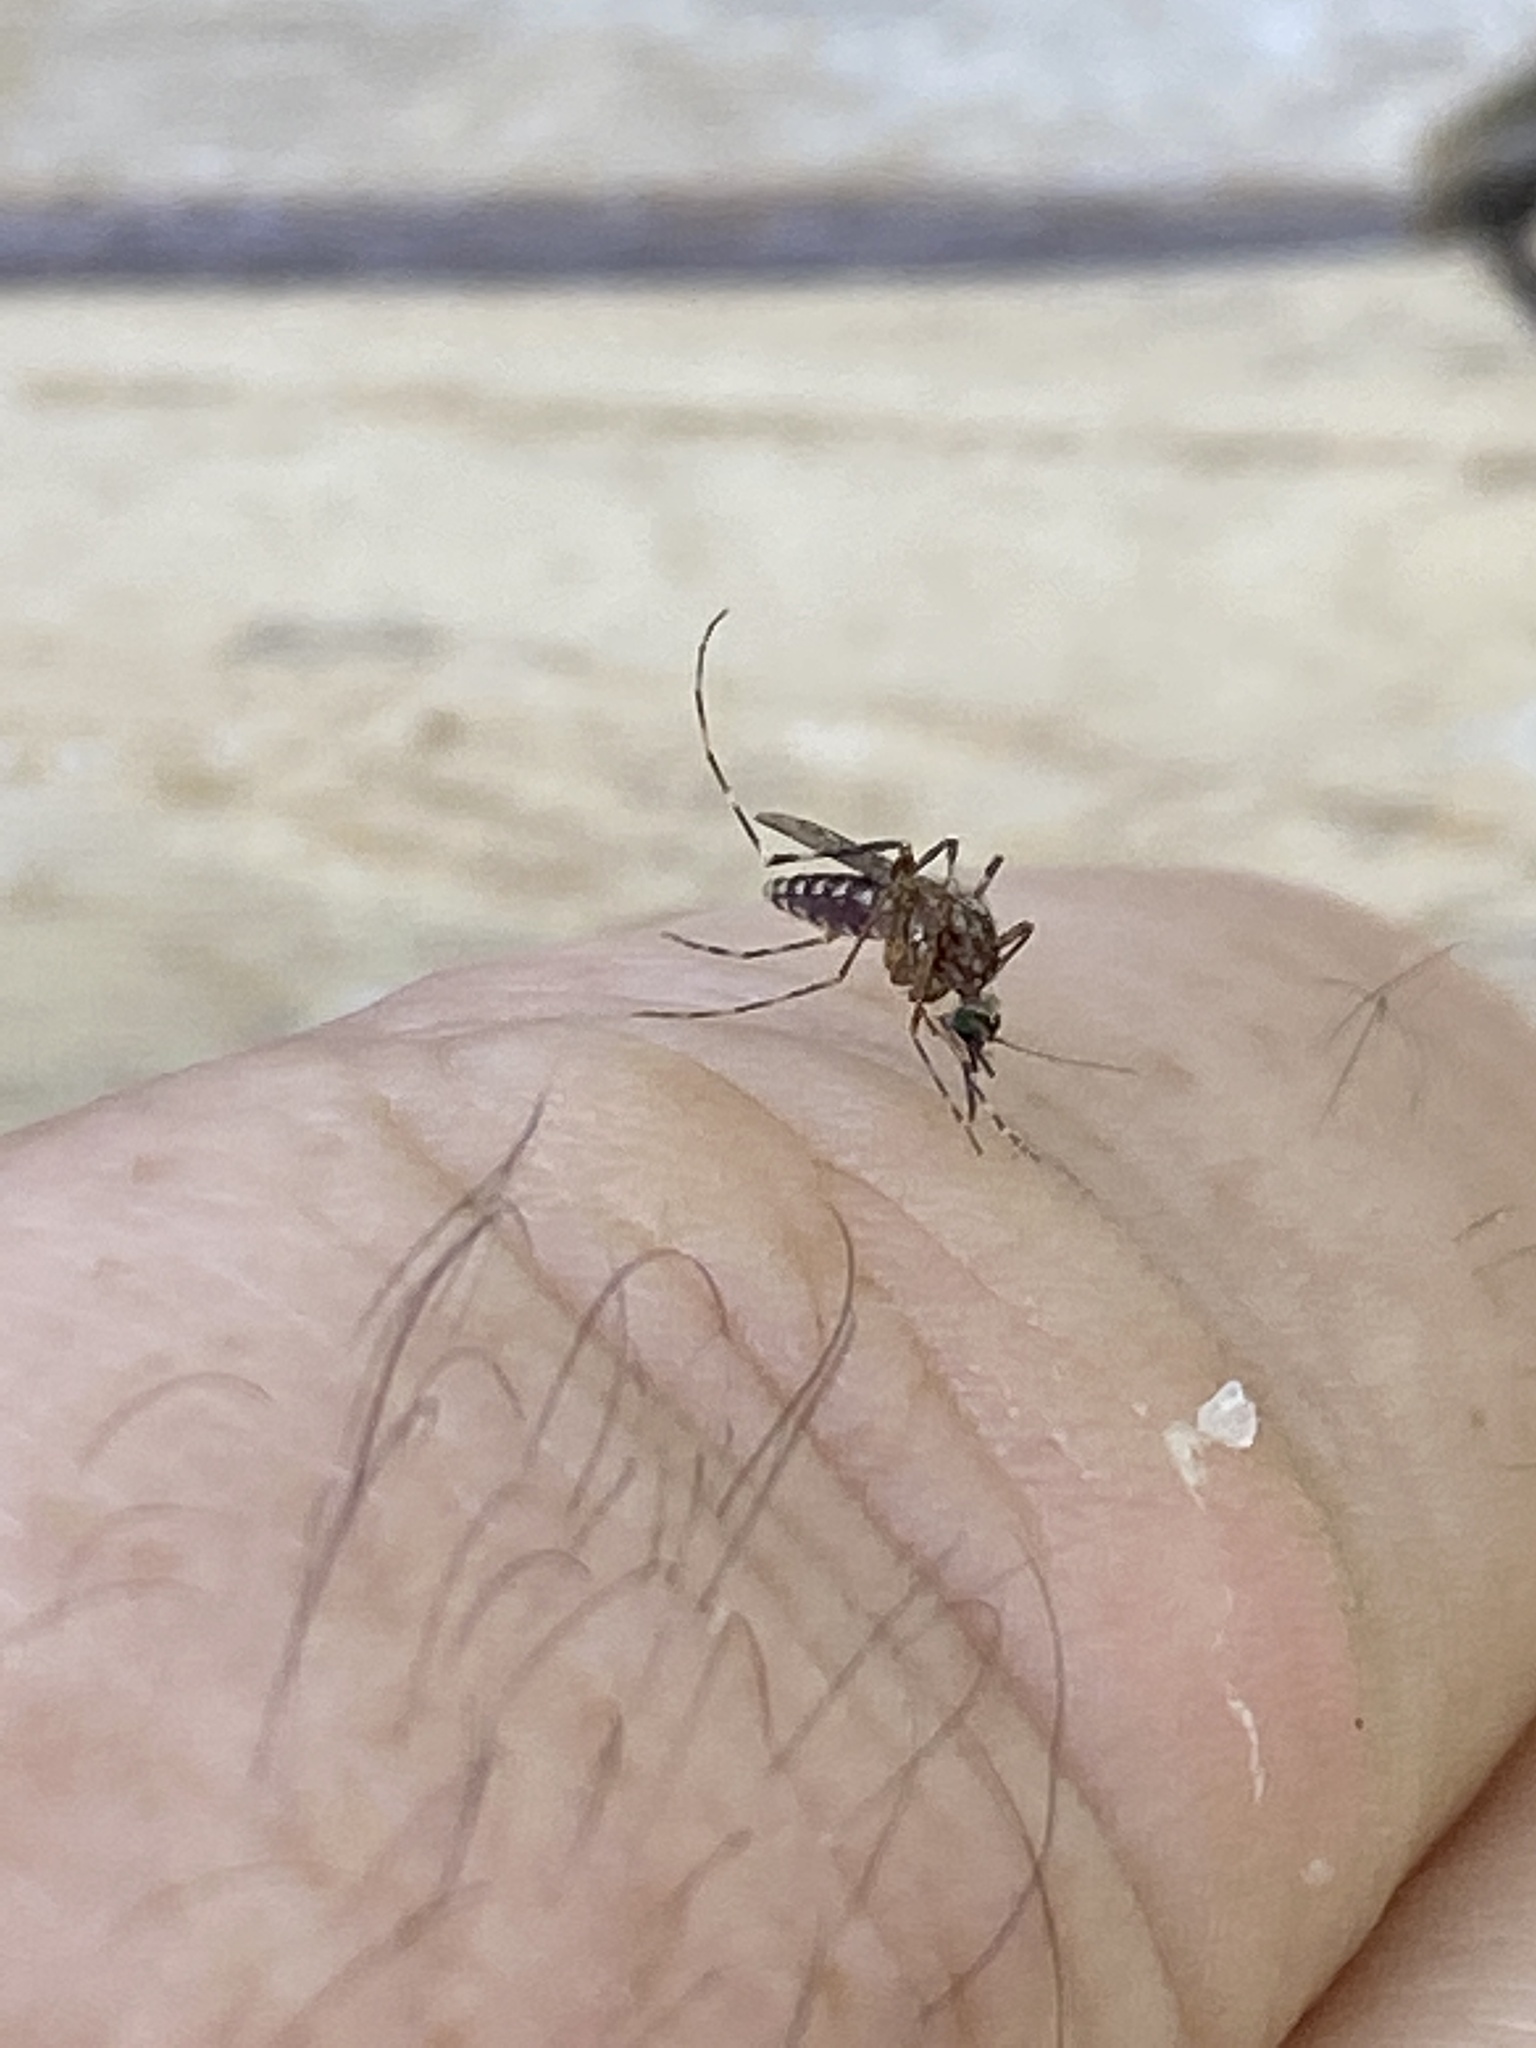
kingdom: Animalia
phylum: Arthropoda
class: Insecta
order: Diptera
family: Culicidae
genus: Coquillettidia
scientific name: Coquillettidia perturbans
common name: Cattail mosquito
